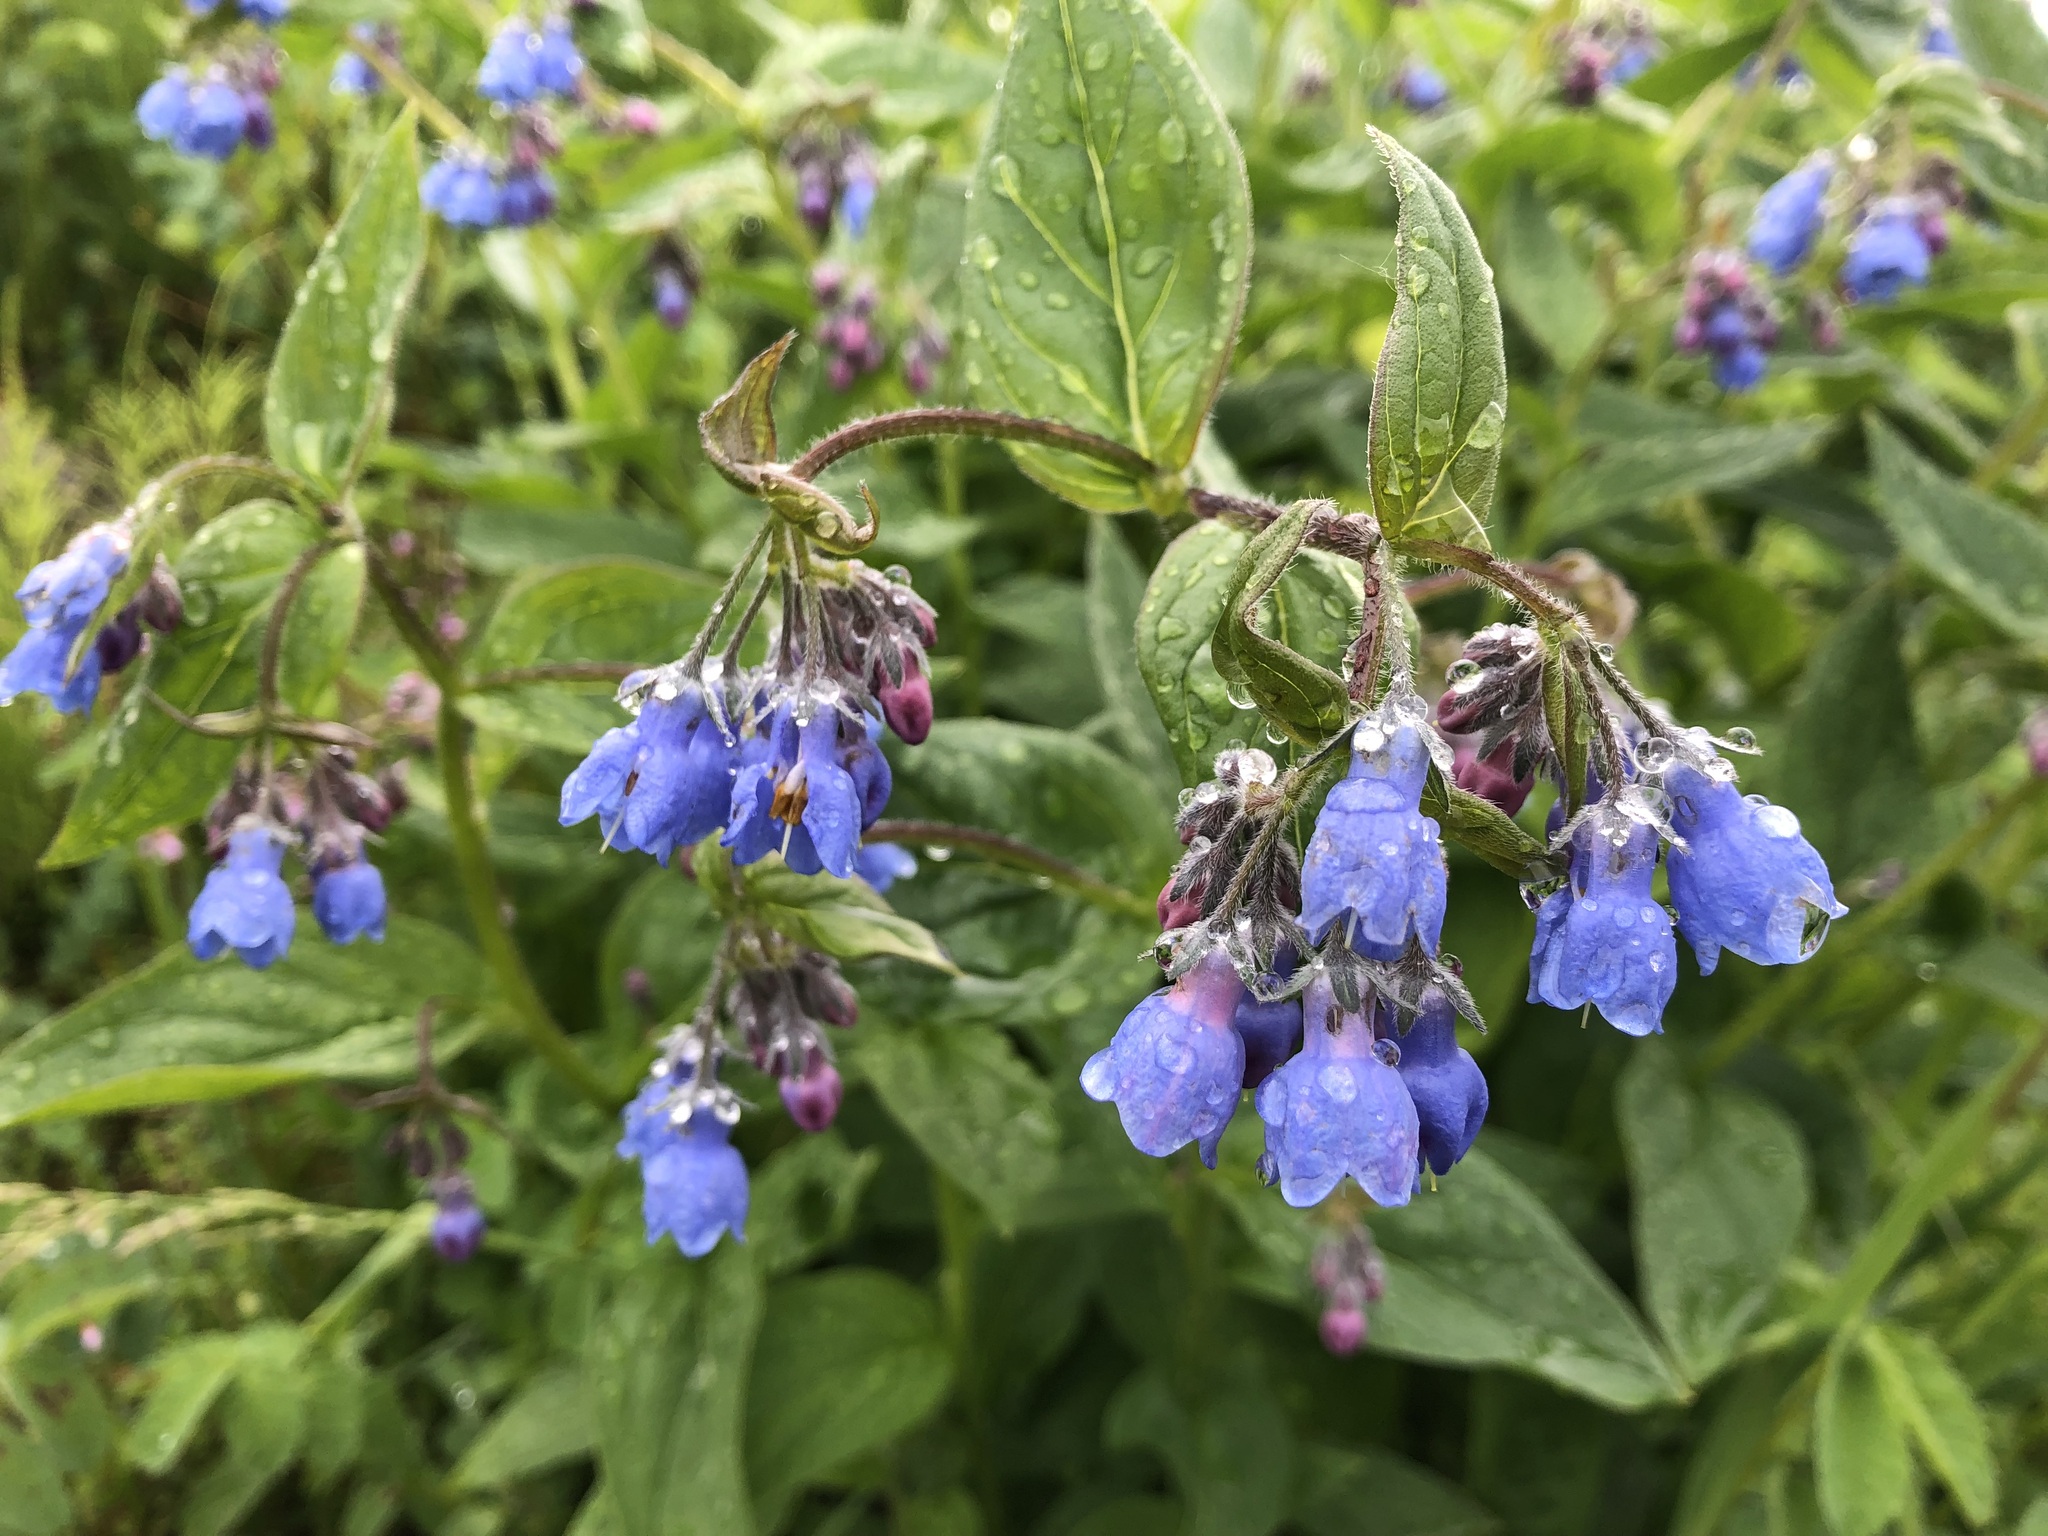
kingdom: Plantae
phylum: Tracheophyta
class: Magnoliopsida
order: Boraginales
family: Boraginaceae
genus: Mertensia
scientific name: Mertensia paniculata
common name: Panicled bluebells
